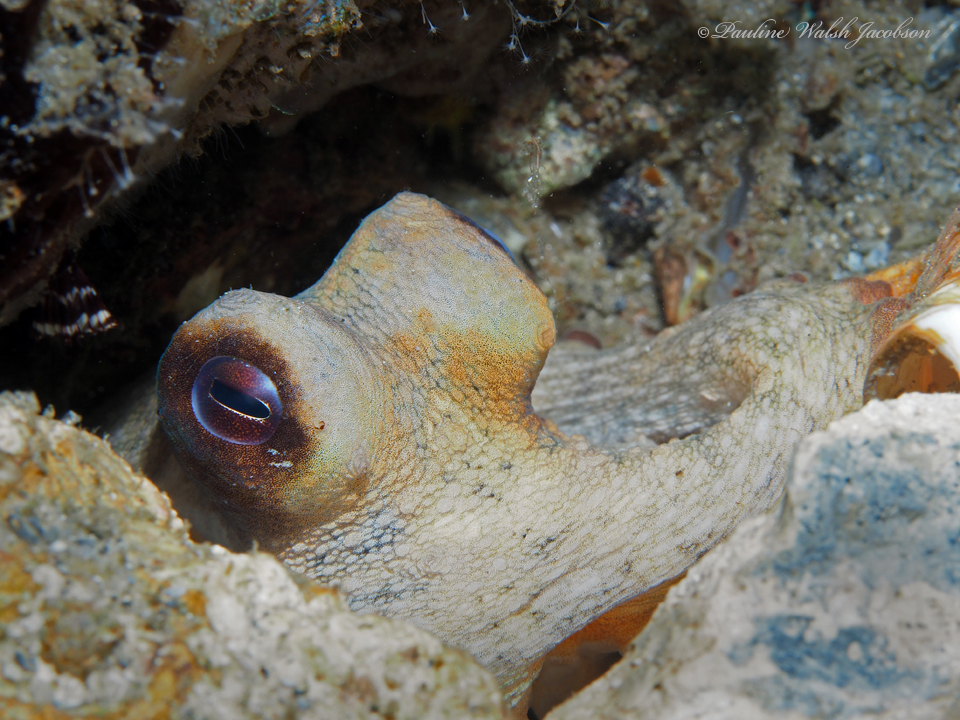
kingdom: Animalia
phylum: Mollusca
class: Cephalopoda
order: Octopoda
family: Octopodidae
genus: Octopus
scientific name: Octopus americanus
